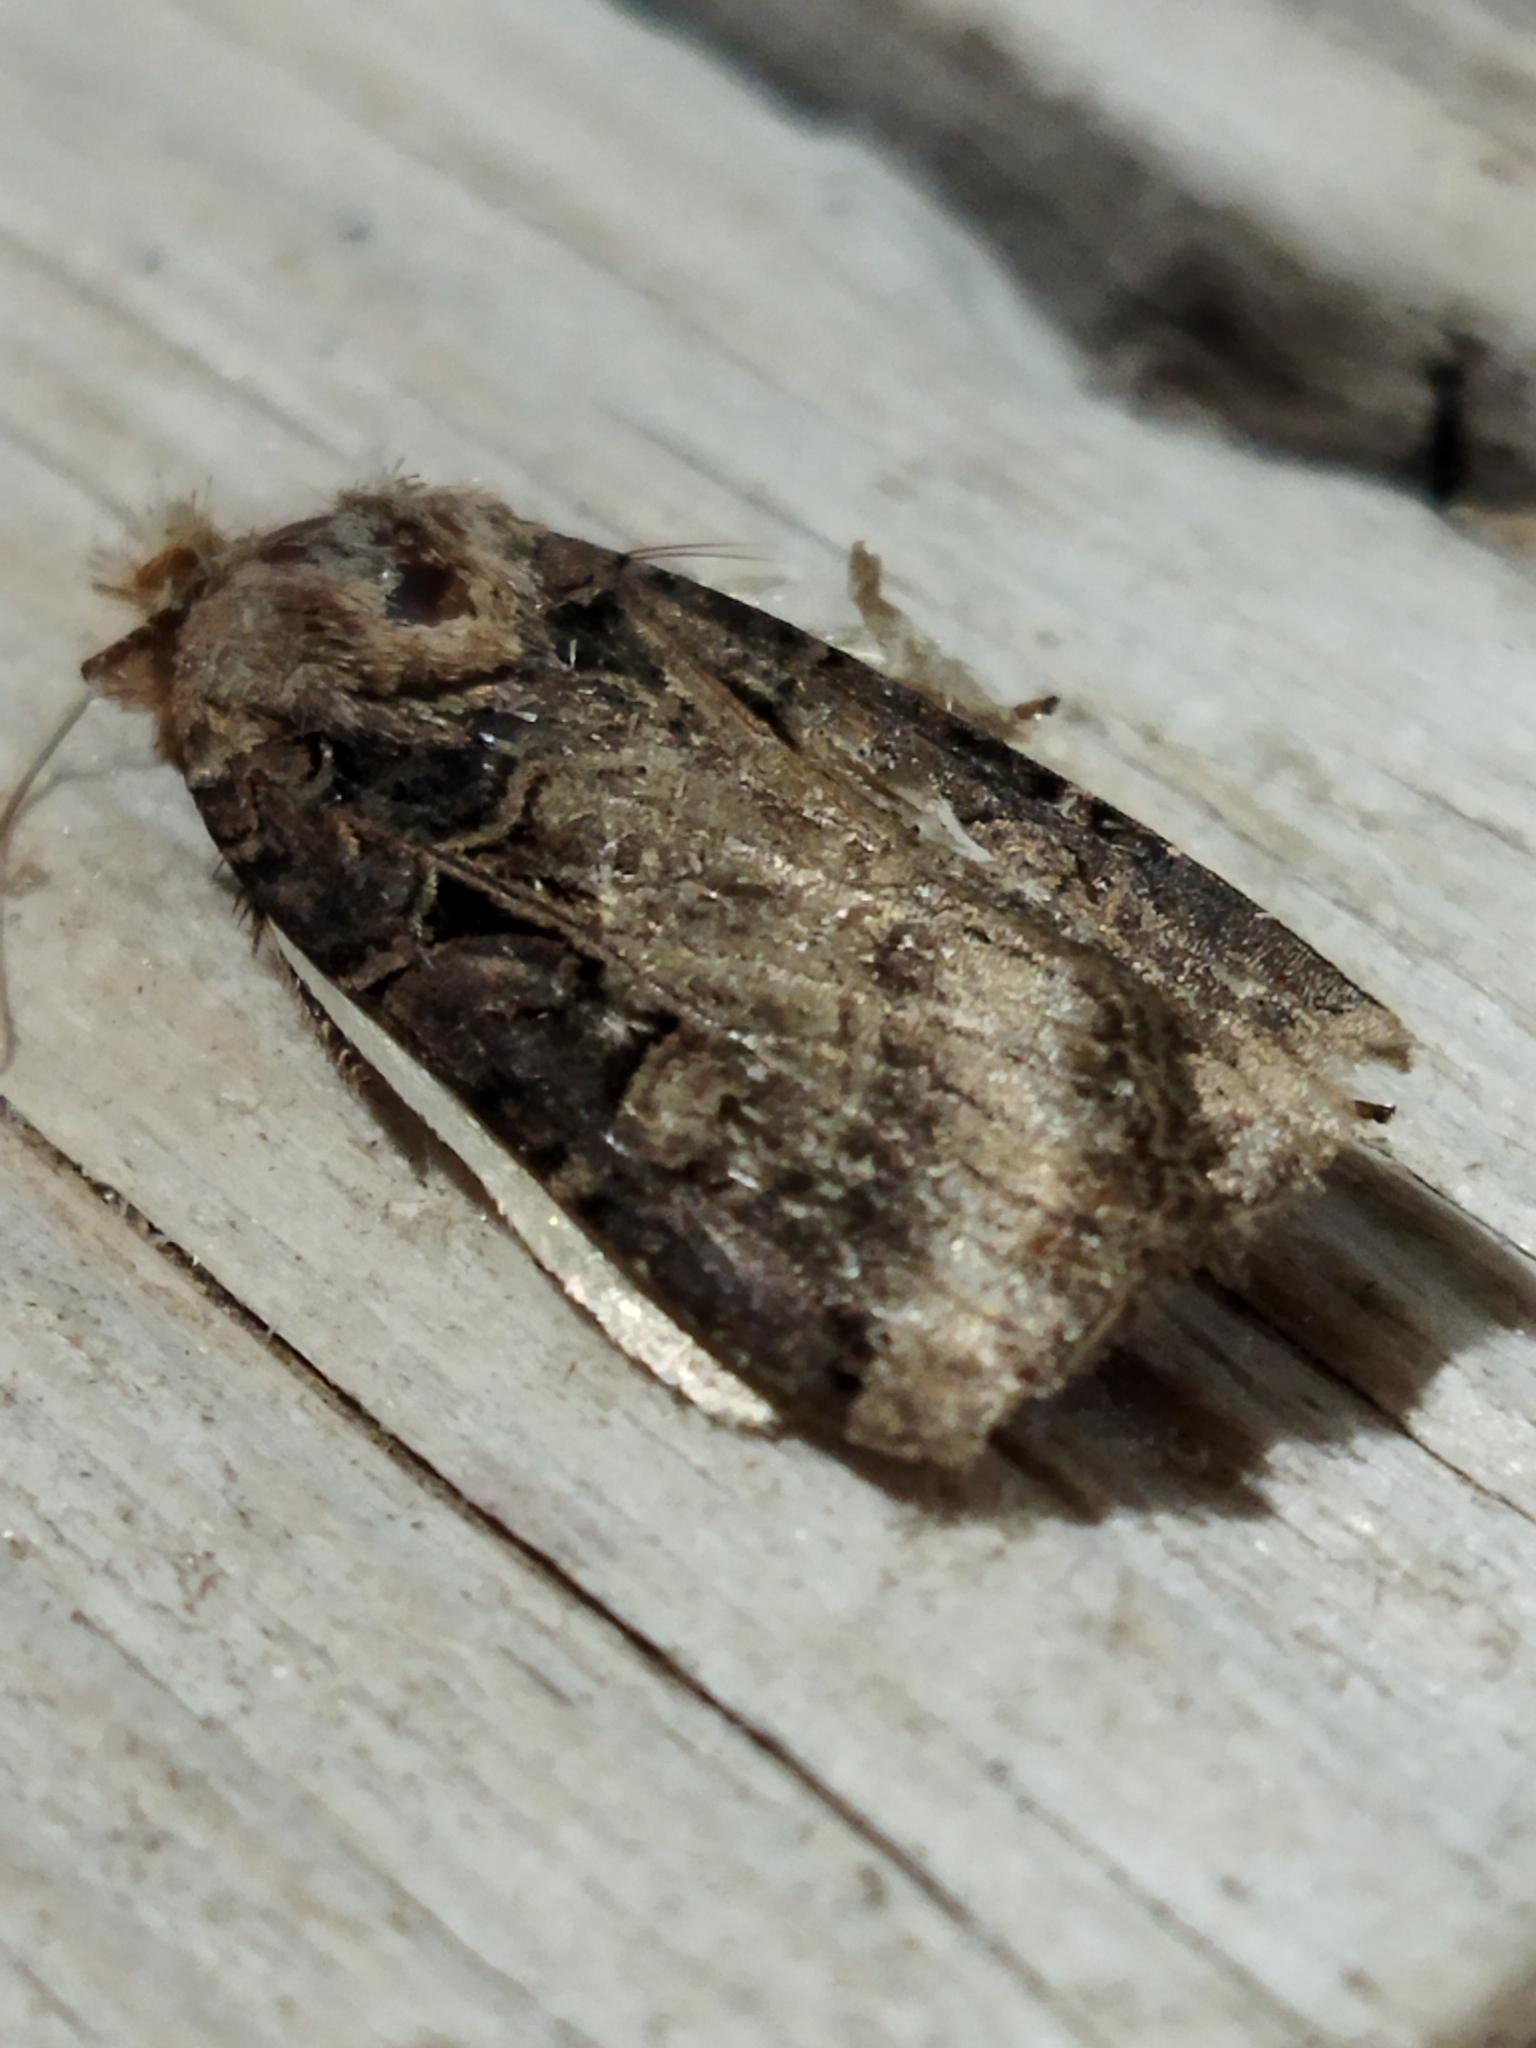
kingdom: Animalia
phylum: Arthropoda
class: Insecta
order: Lepidoptera
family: Noctuidae
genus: Opigena
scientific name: Opigena polygona
